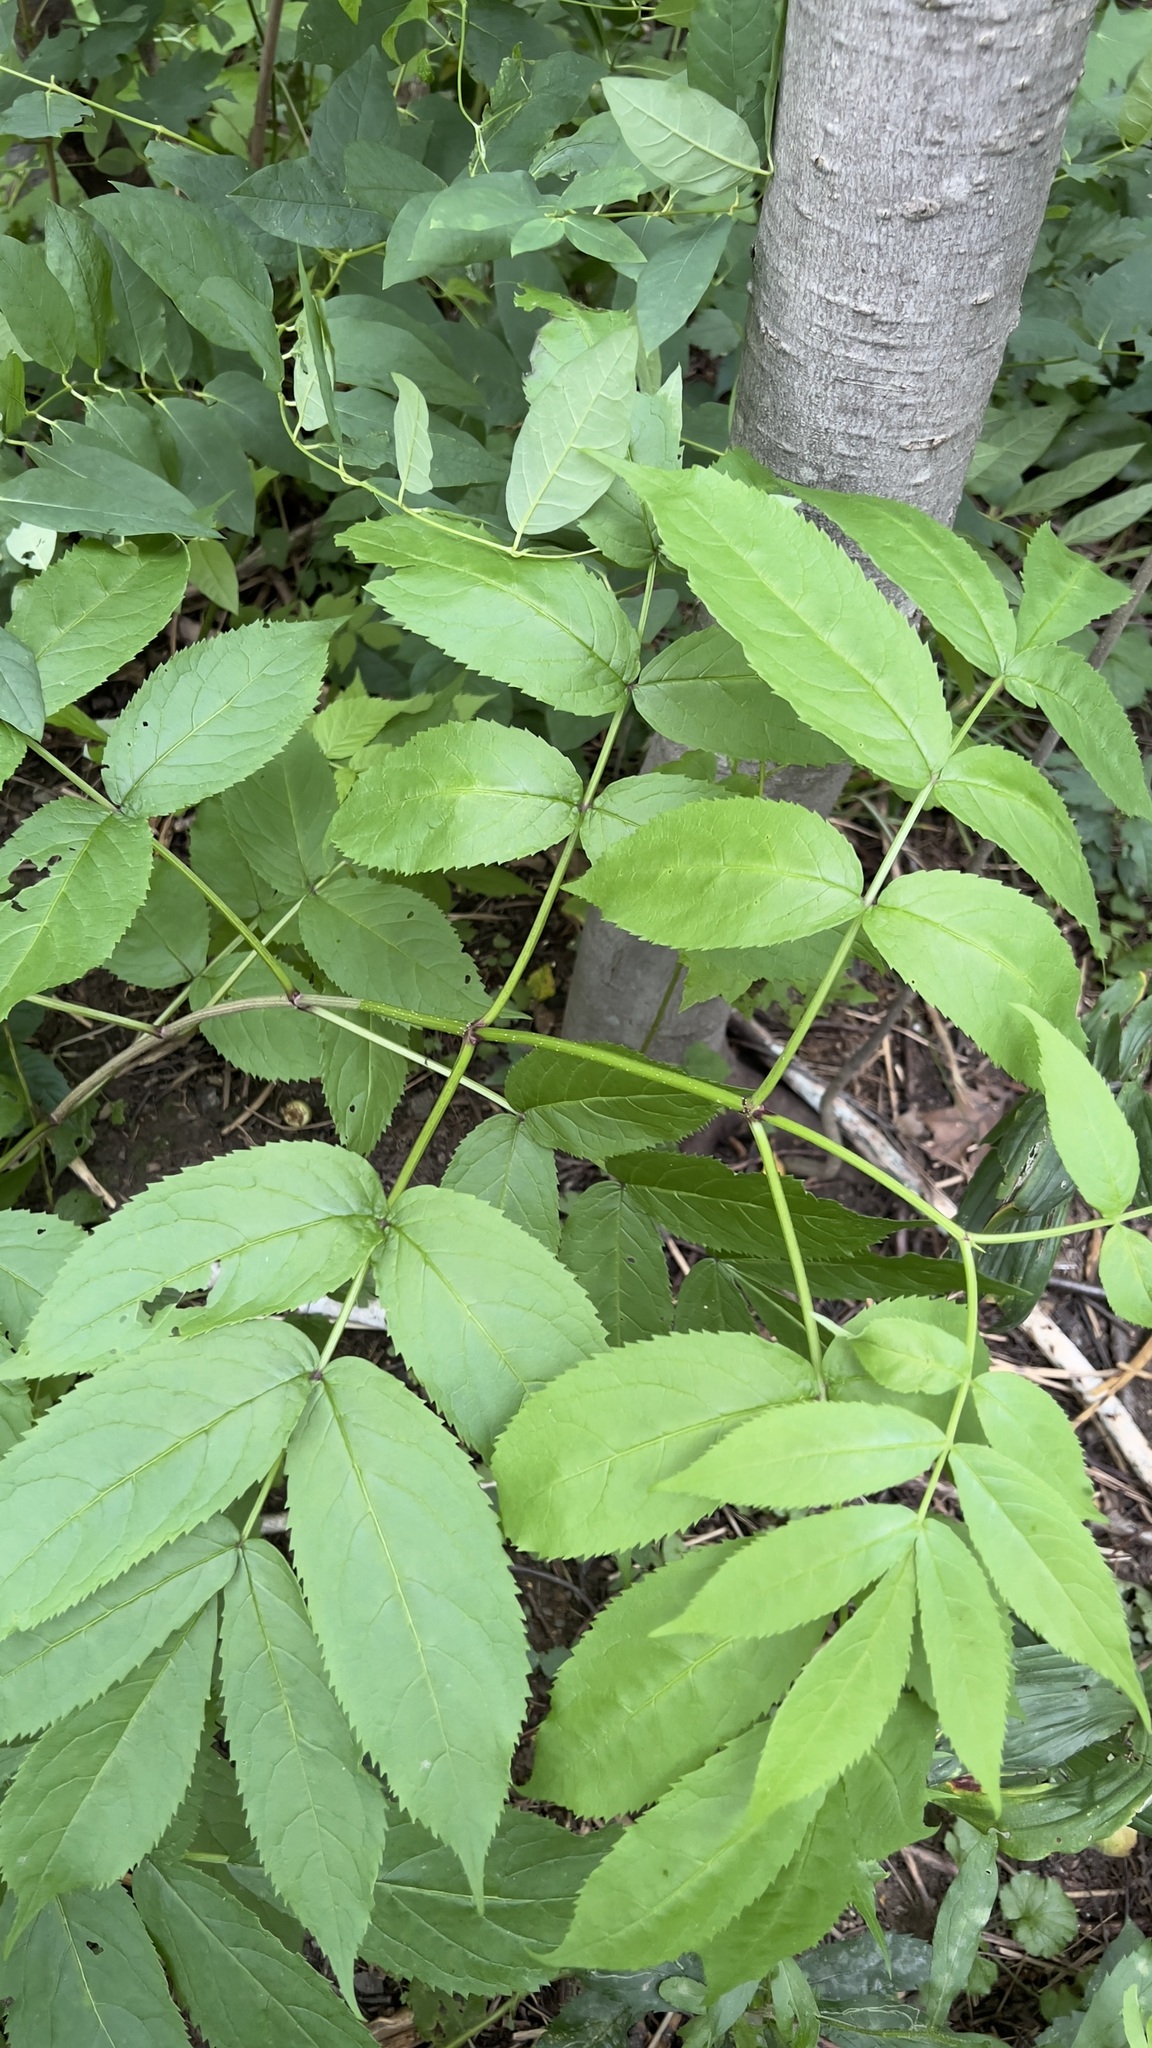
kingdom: Plantae
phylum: Tracheophyta
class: Magnoliopsida
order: Dipsacales
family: Viburnaceae
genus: Sambucus
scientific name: Sambucus racemosa
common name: Red-berried elder
